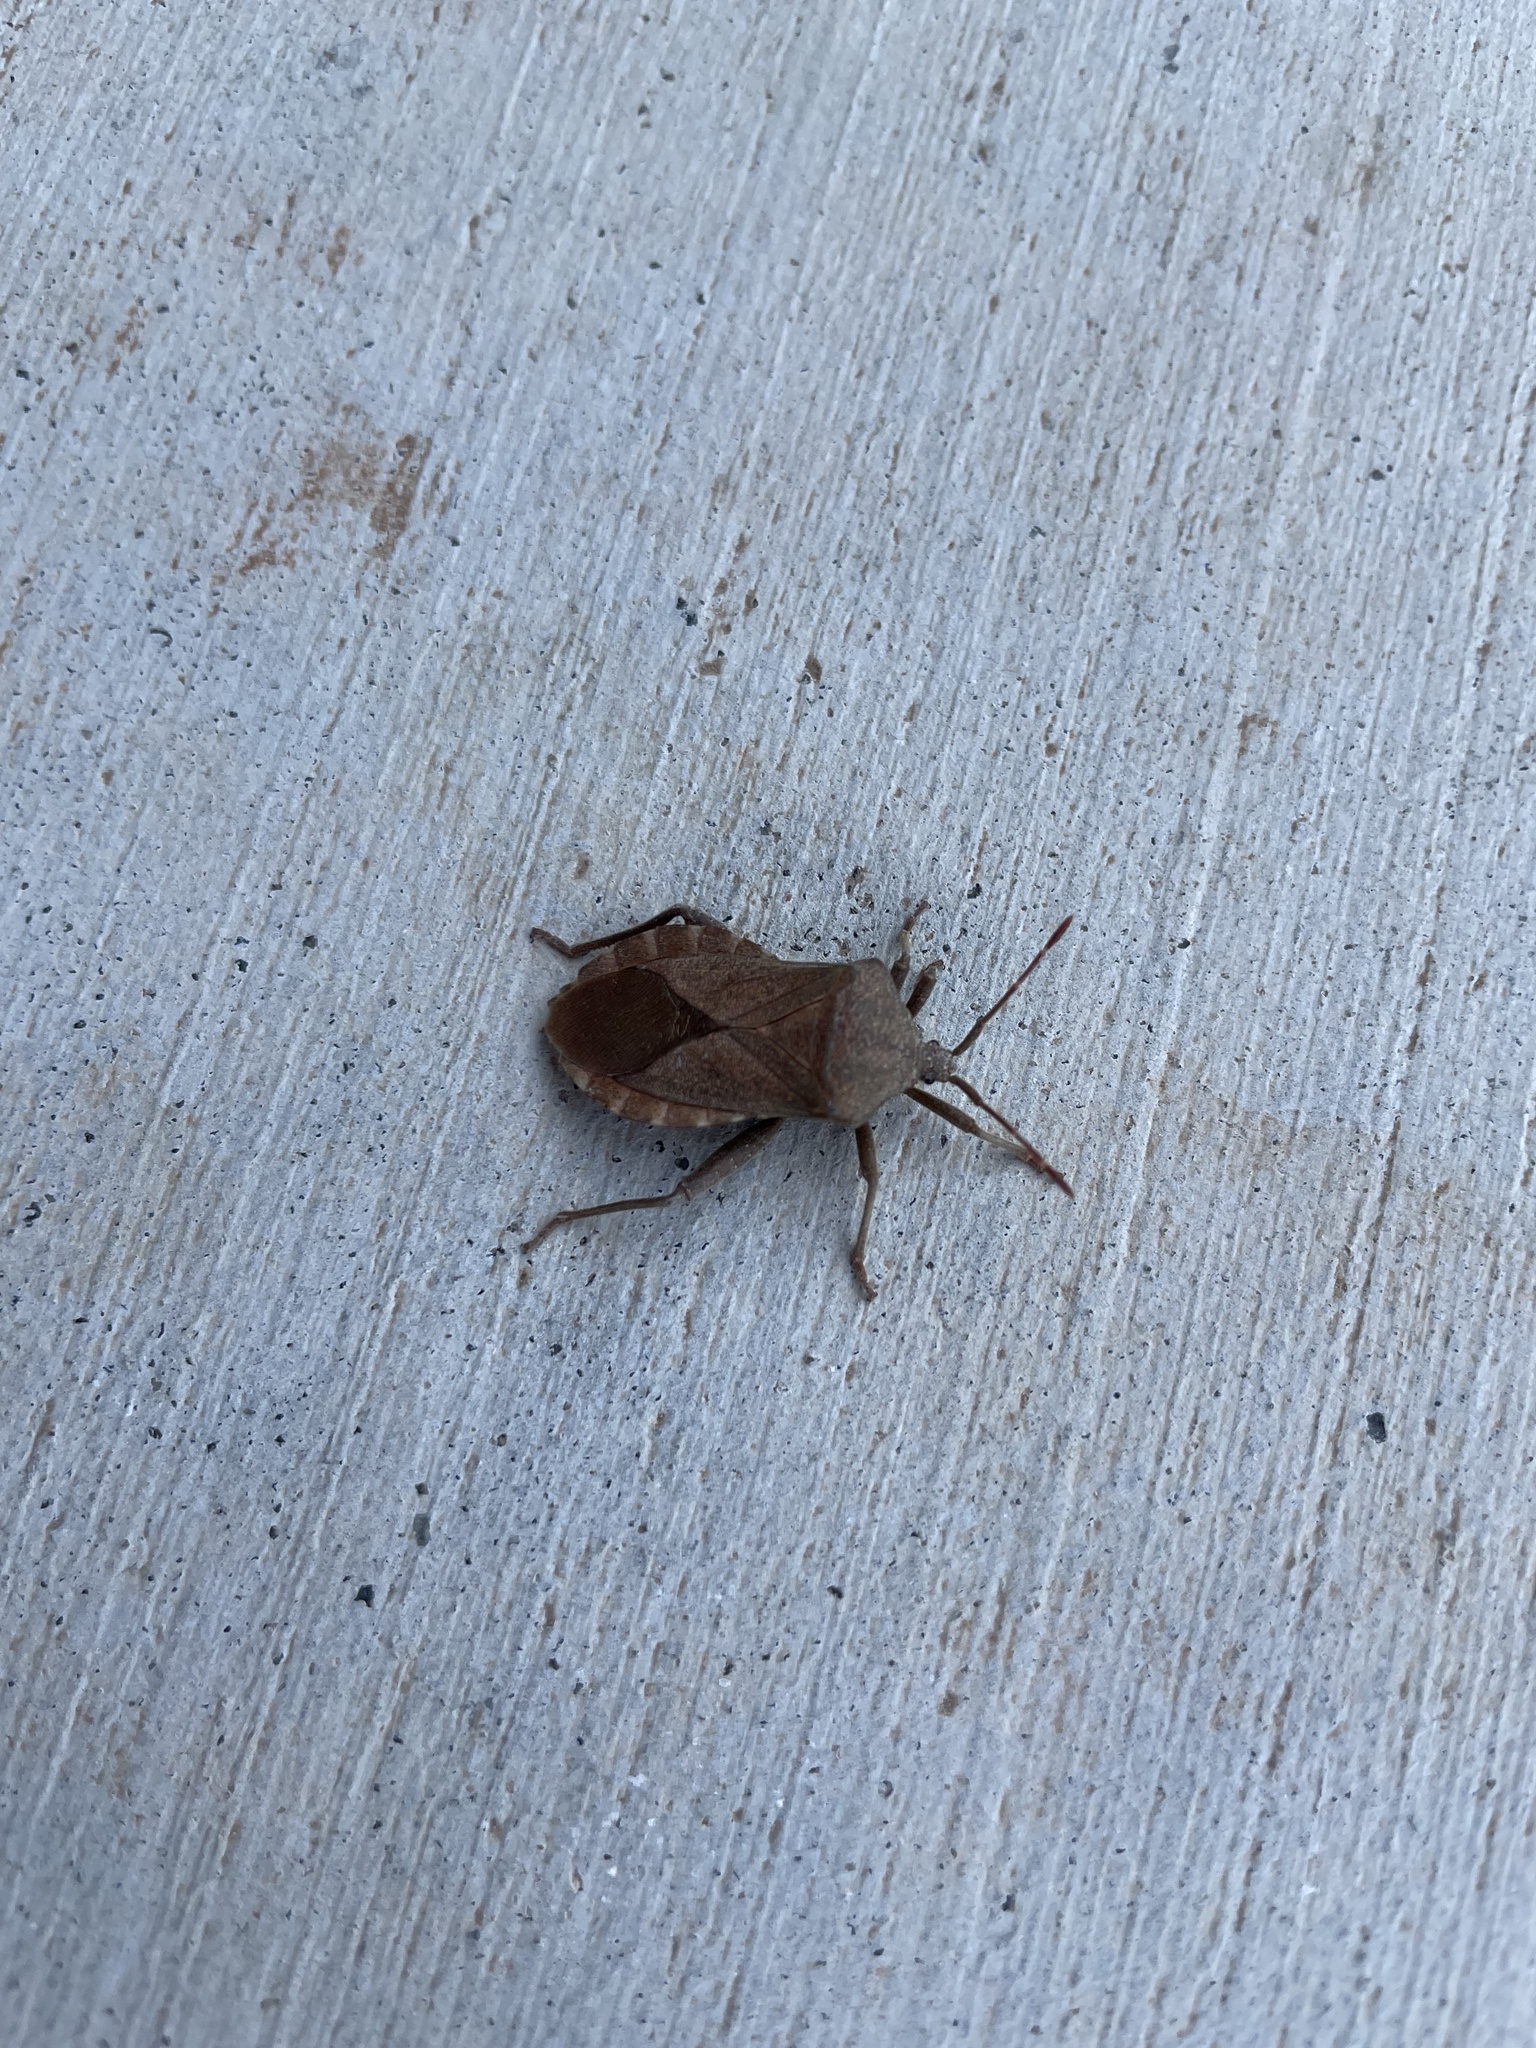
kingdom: Animalia
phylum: Arthropoda
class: Insecta
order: Hemiptera
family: Coreidae
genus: Mozena
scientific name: Mozena obesa
